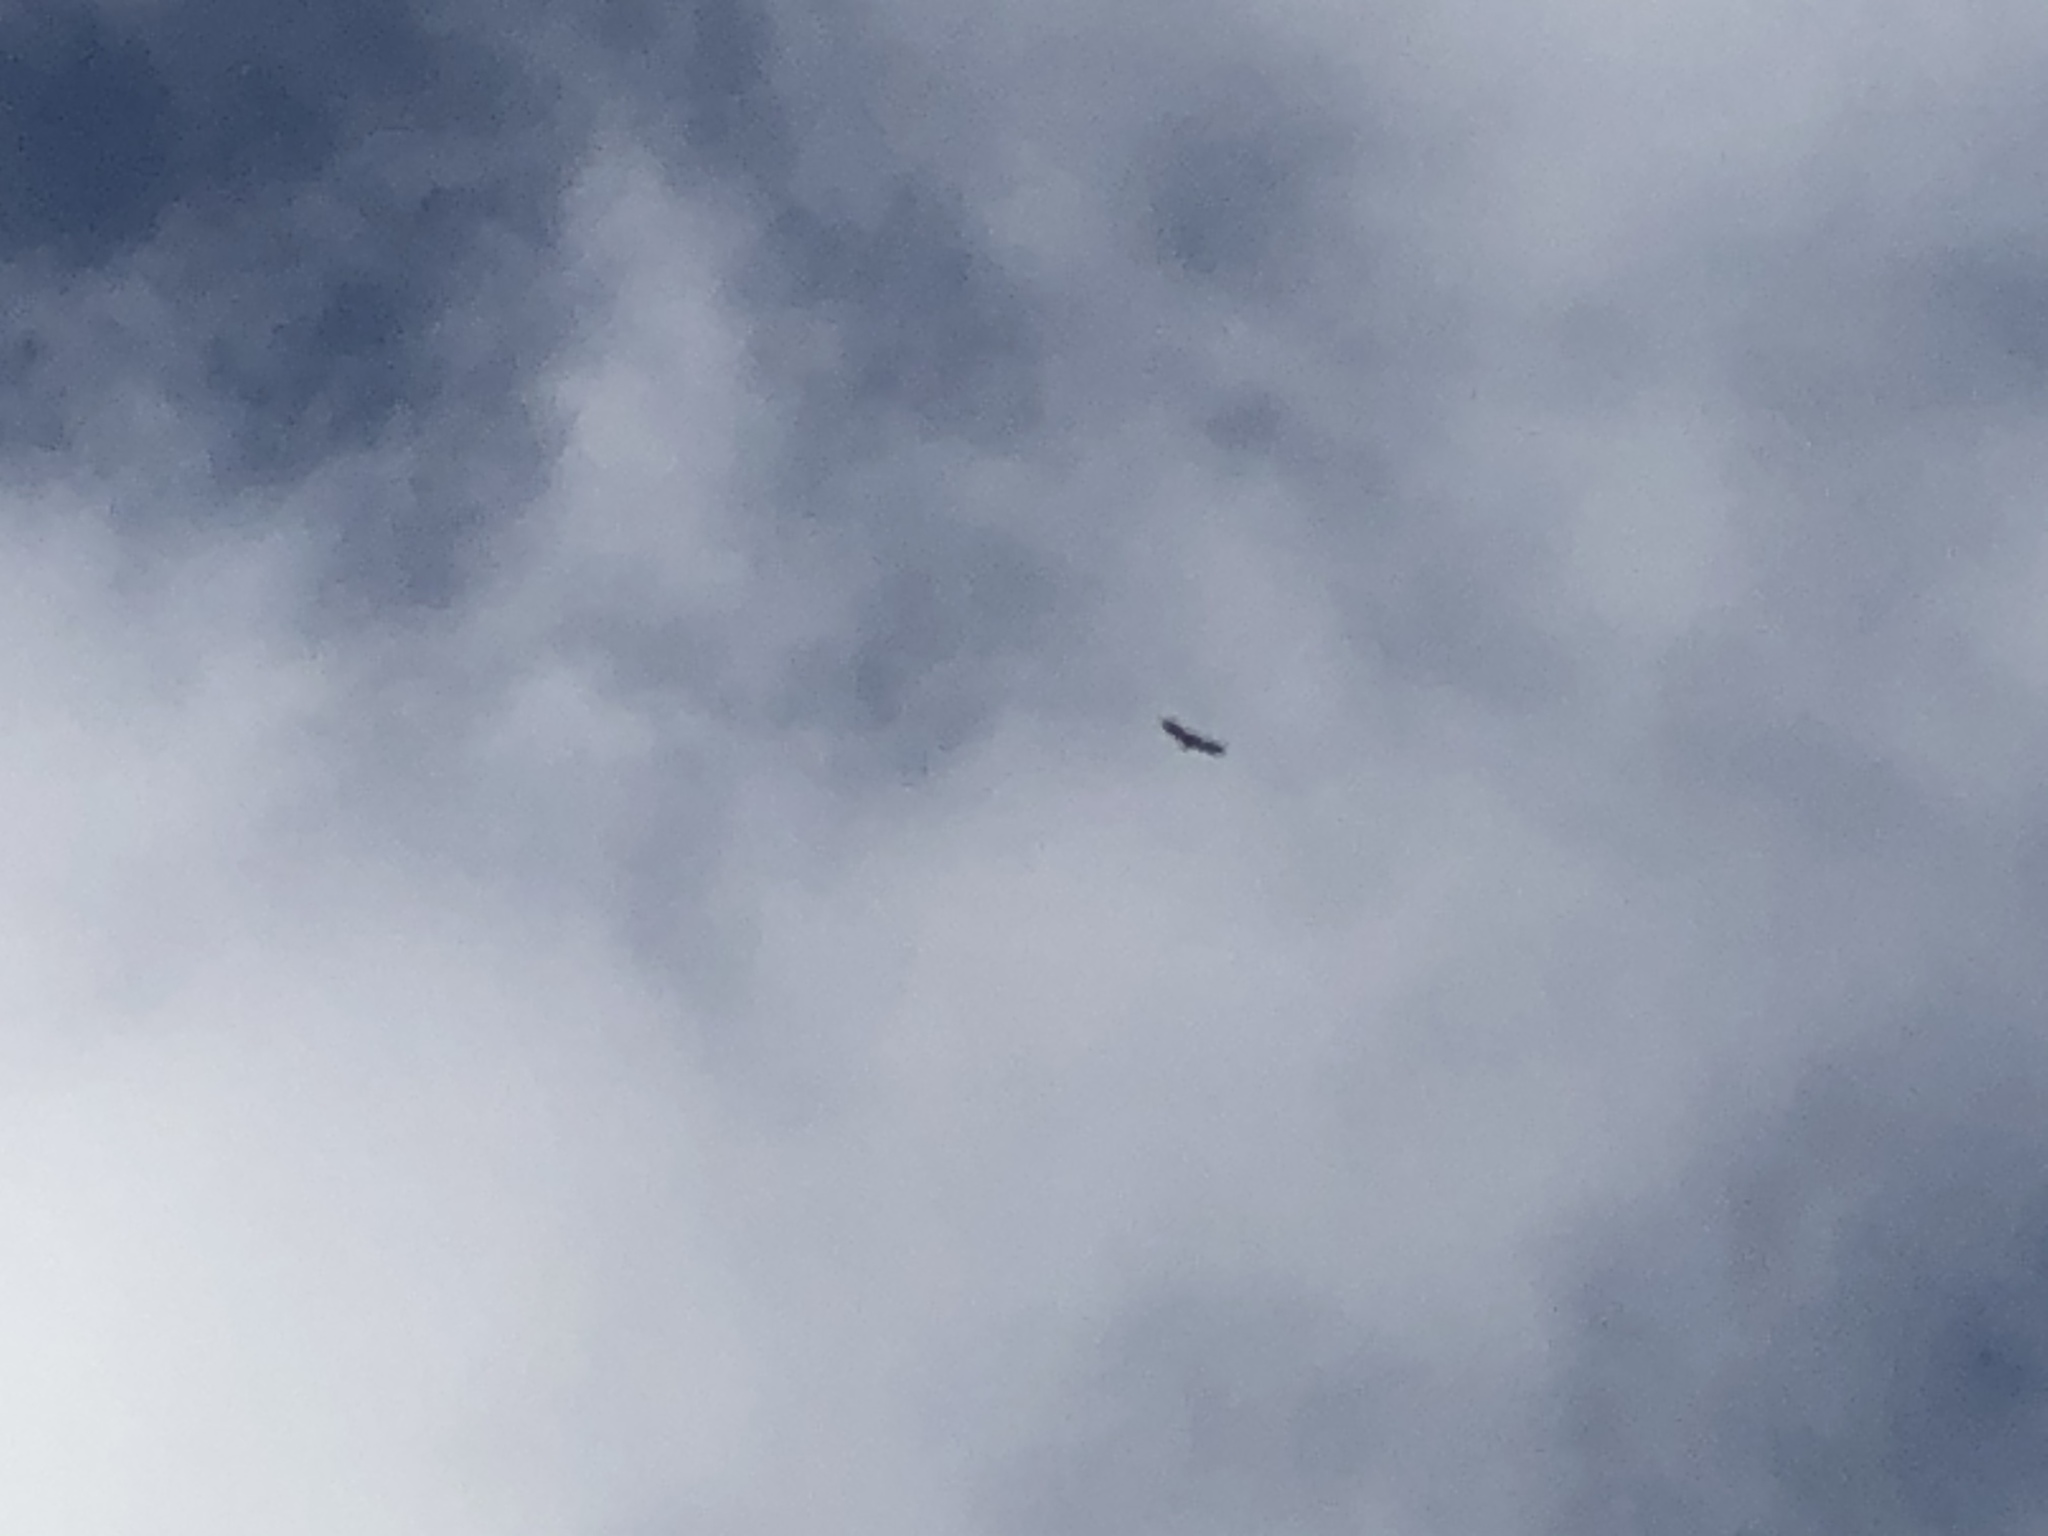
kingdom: Animalia
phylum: Chordata
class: Aves
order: Accipitriformes
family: Accipitridae
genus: Gyps
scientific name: Gyps fulvus
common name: Griffon vulture
